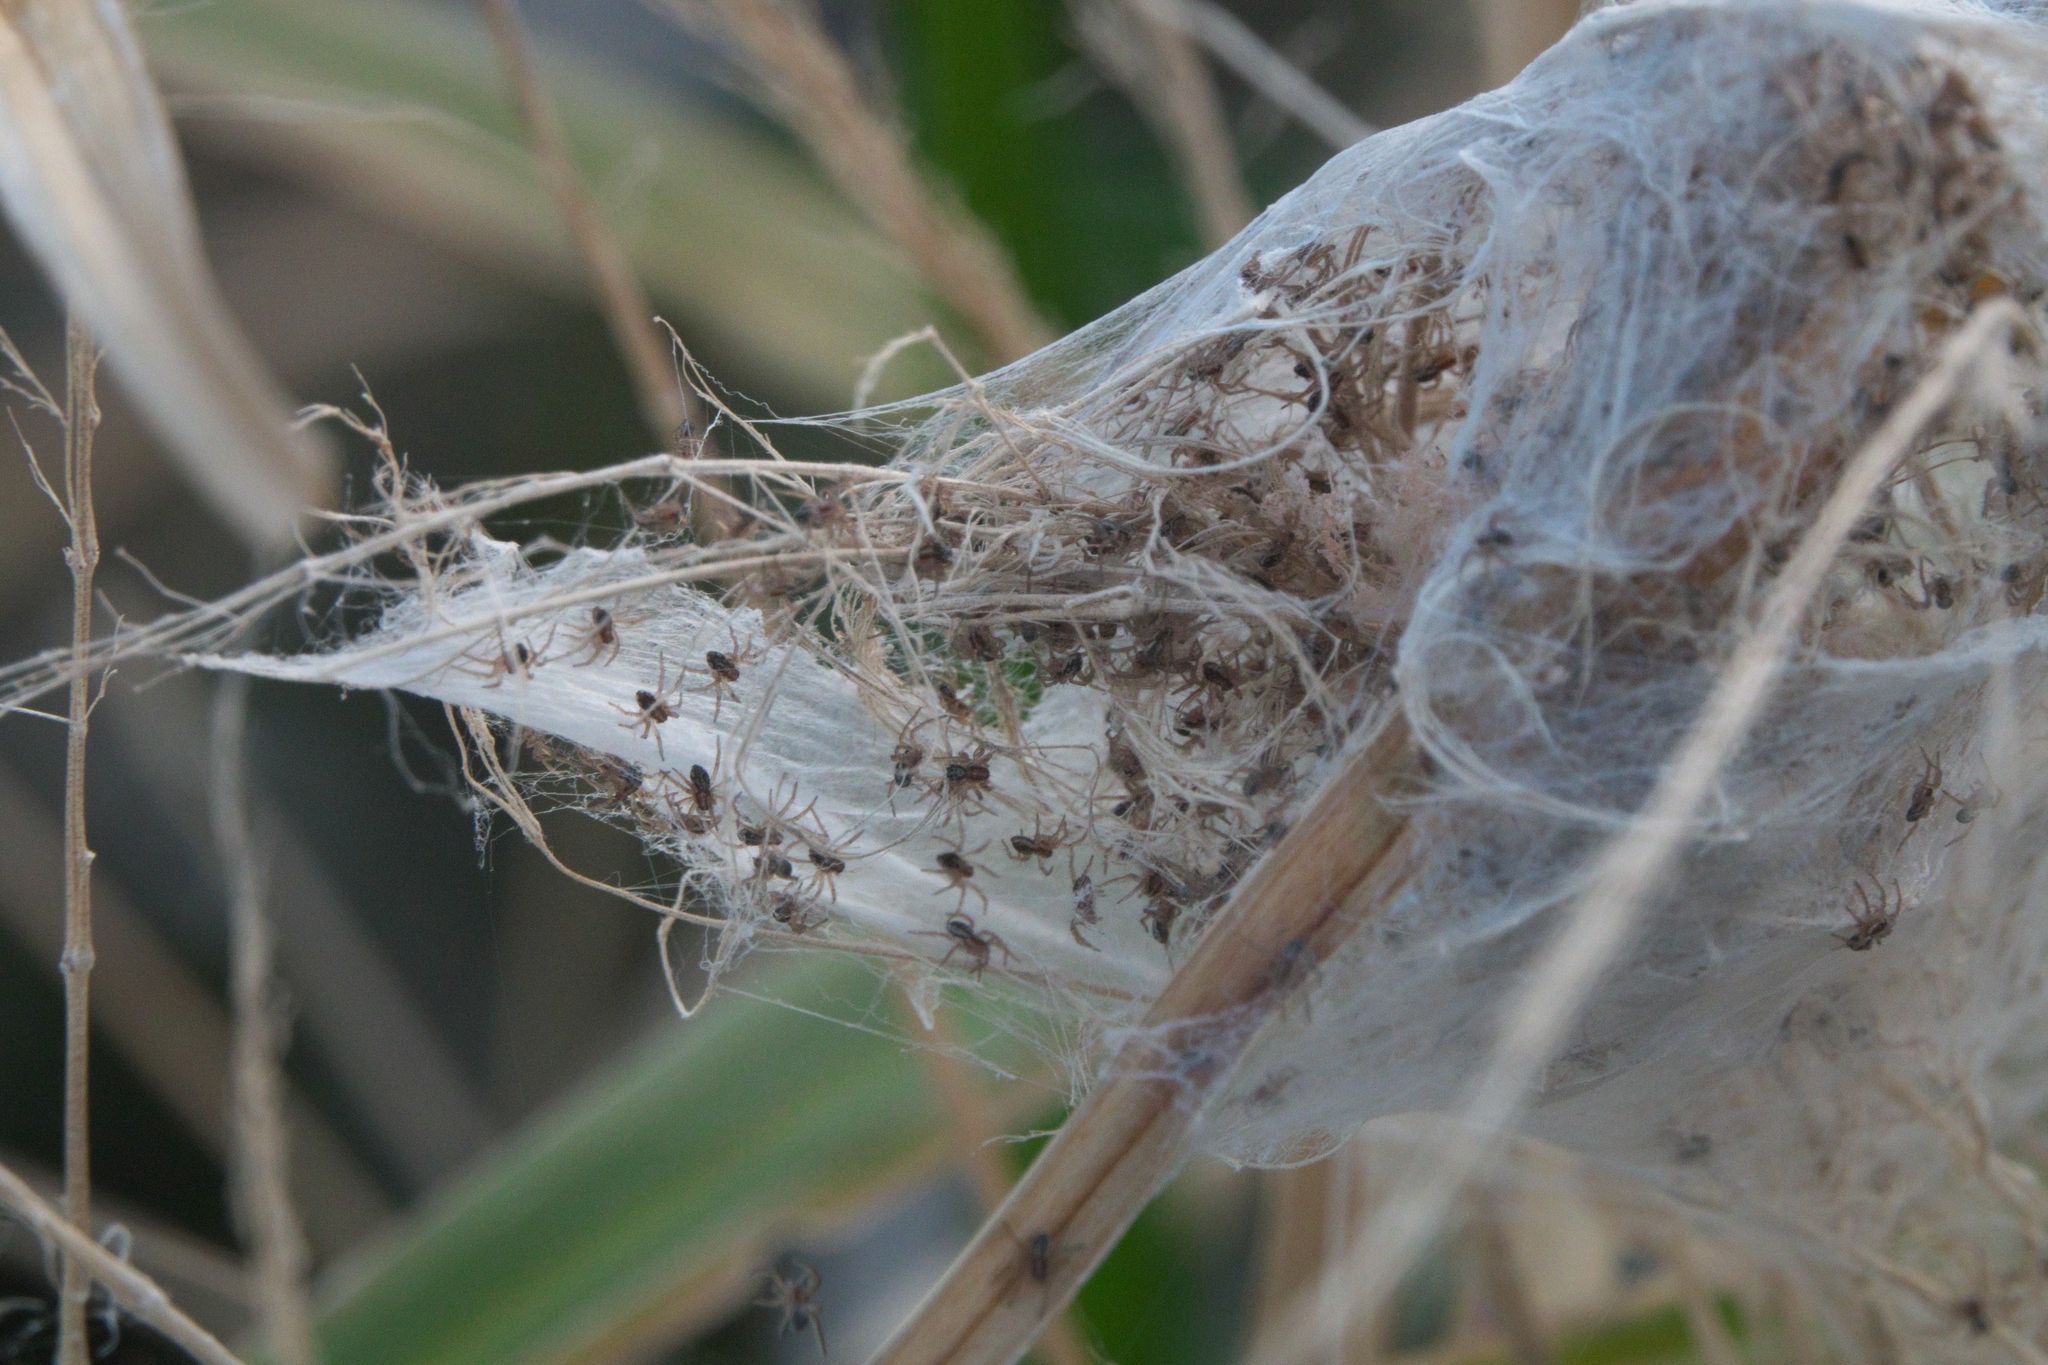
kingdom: Animalia
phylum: Arthropoda
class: Arachnida
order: Araneae
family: Pisauridae
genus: Dolomedes
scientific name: Dolomedes minor
